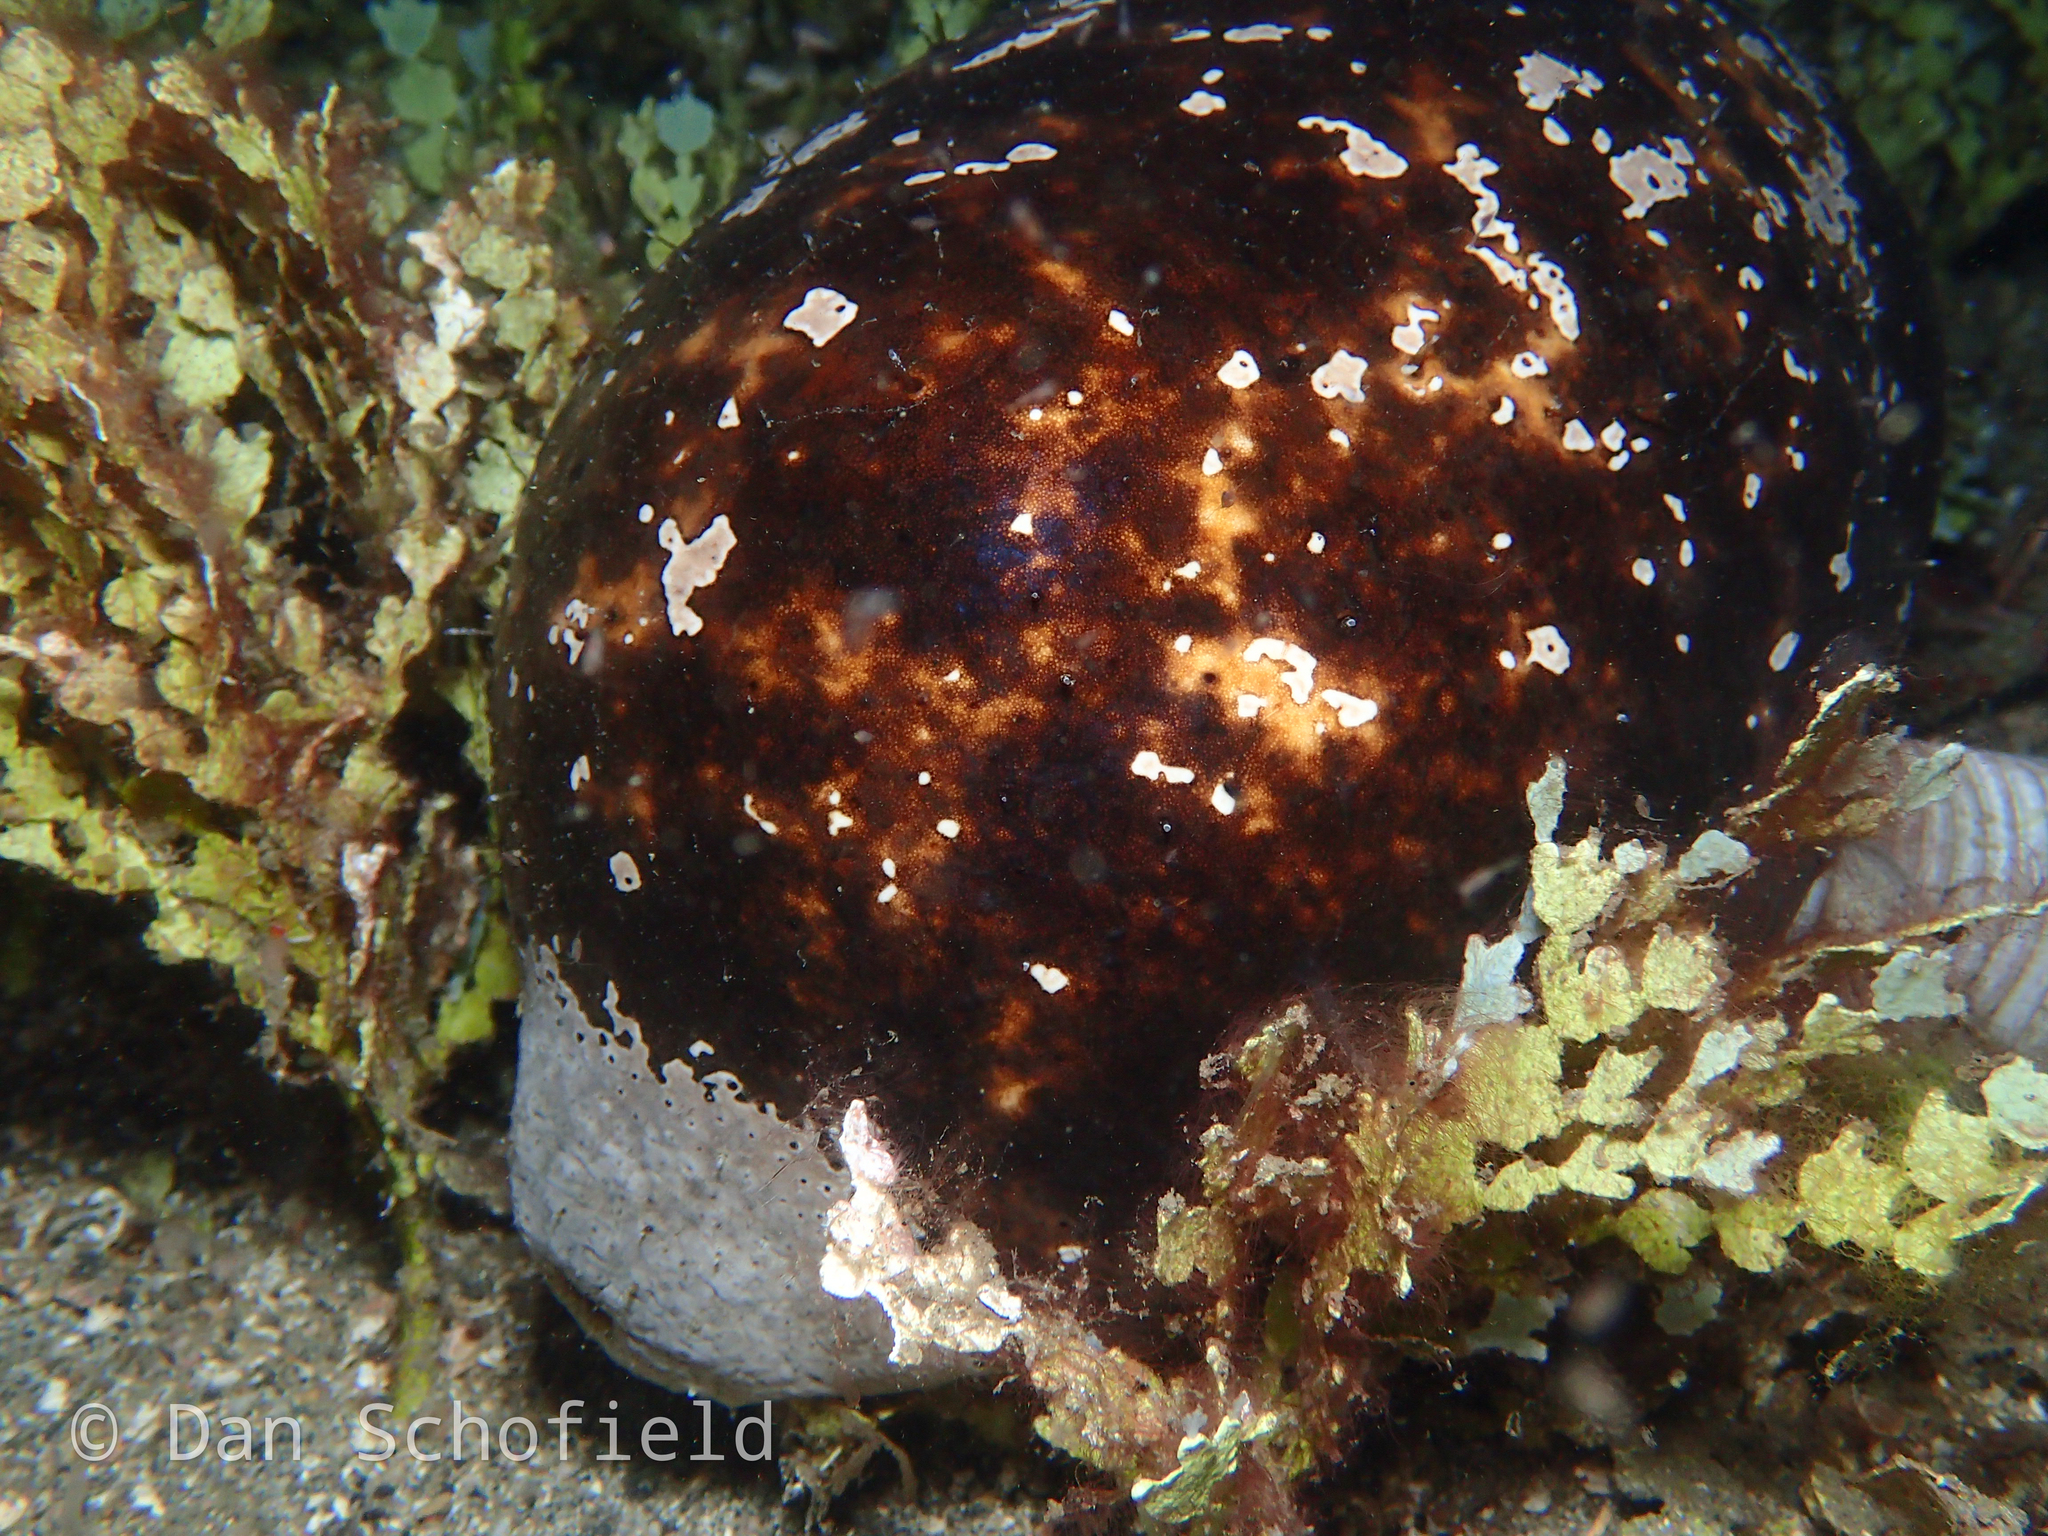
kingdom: Animalia
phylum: Echinodermata
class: Holothuroidea
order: Holothuriida
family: Holothuriidae
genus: Actinopyga
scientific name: Actinopyga lecanora
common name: Stonefish
